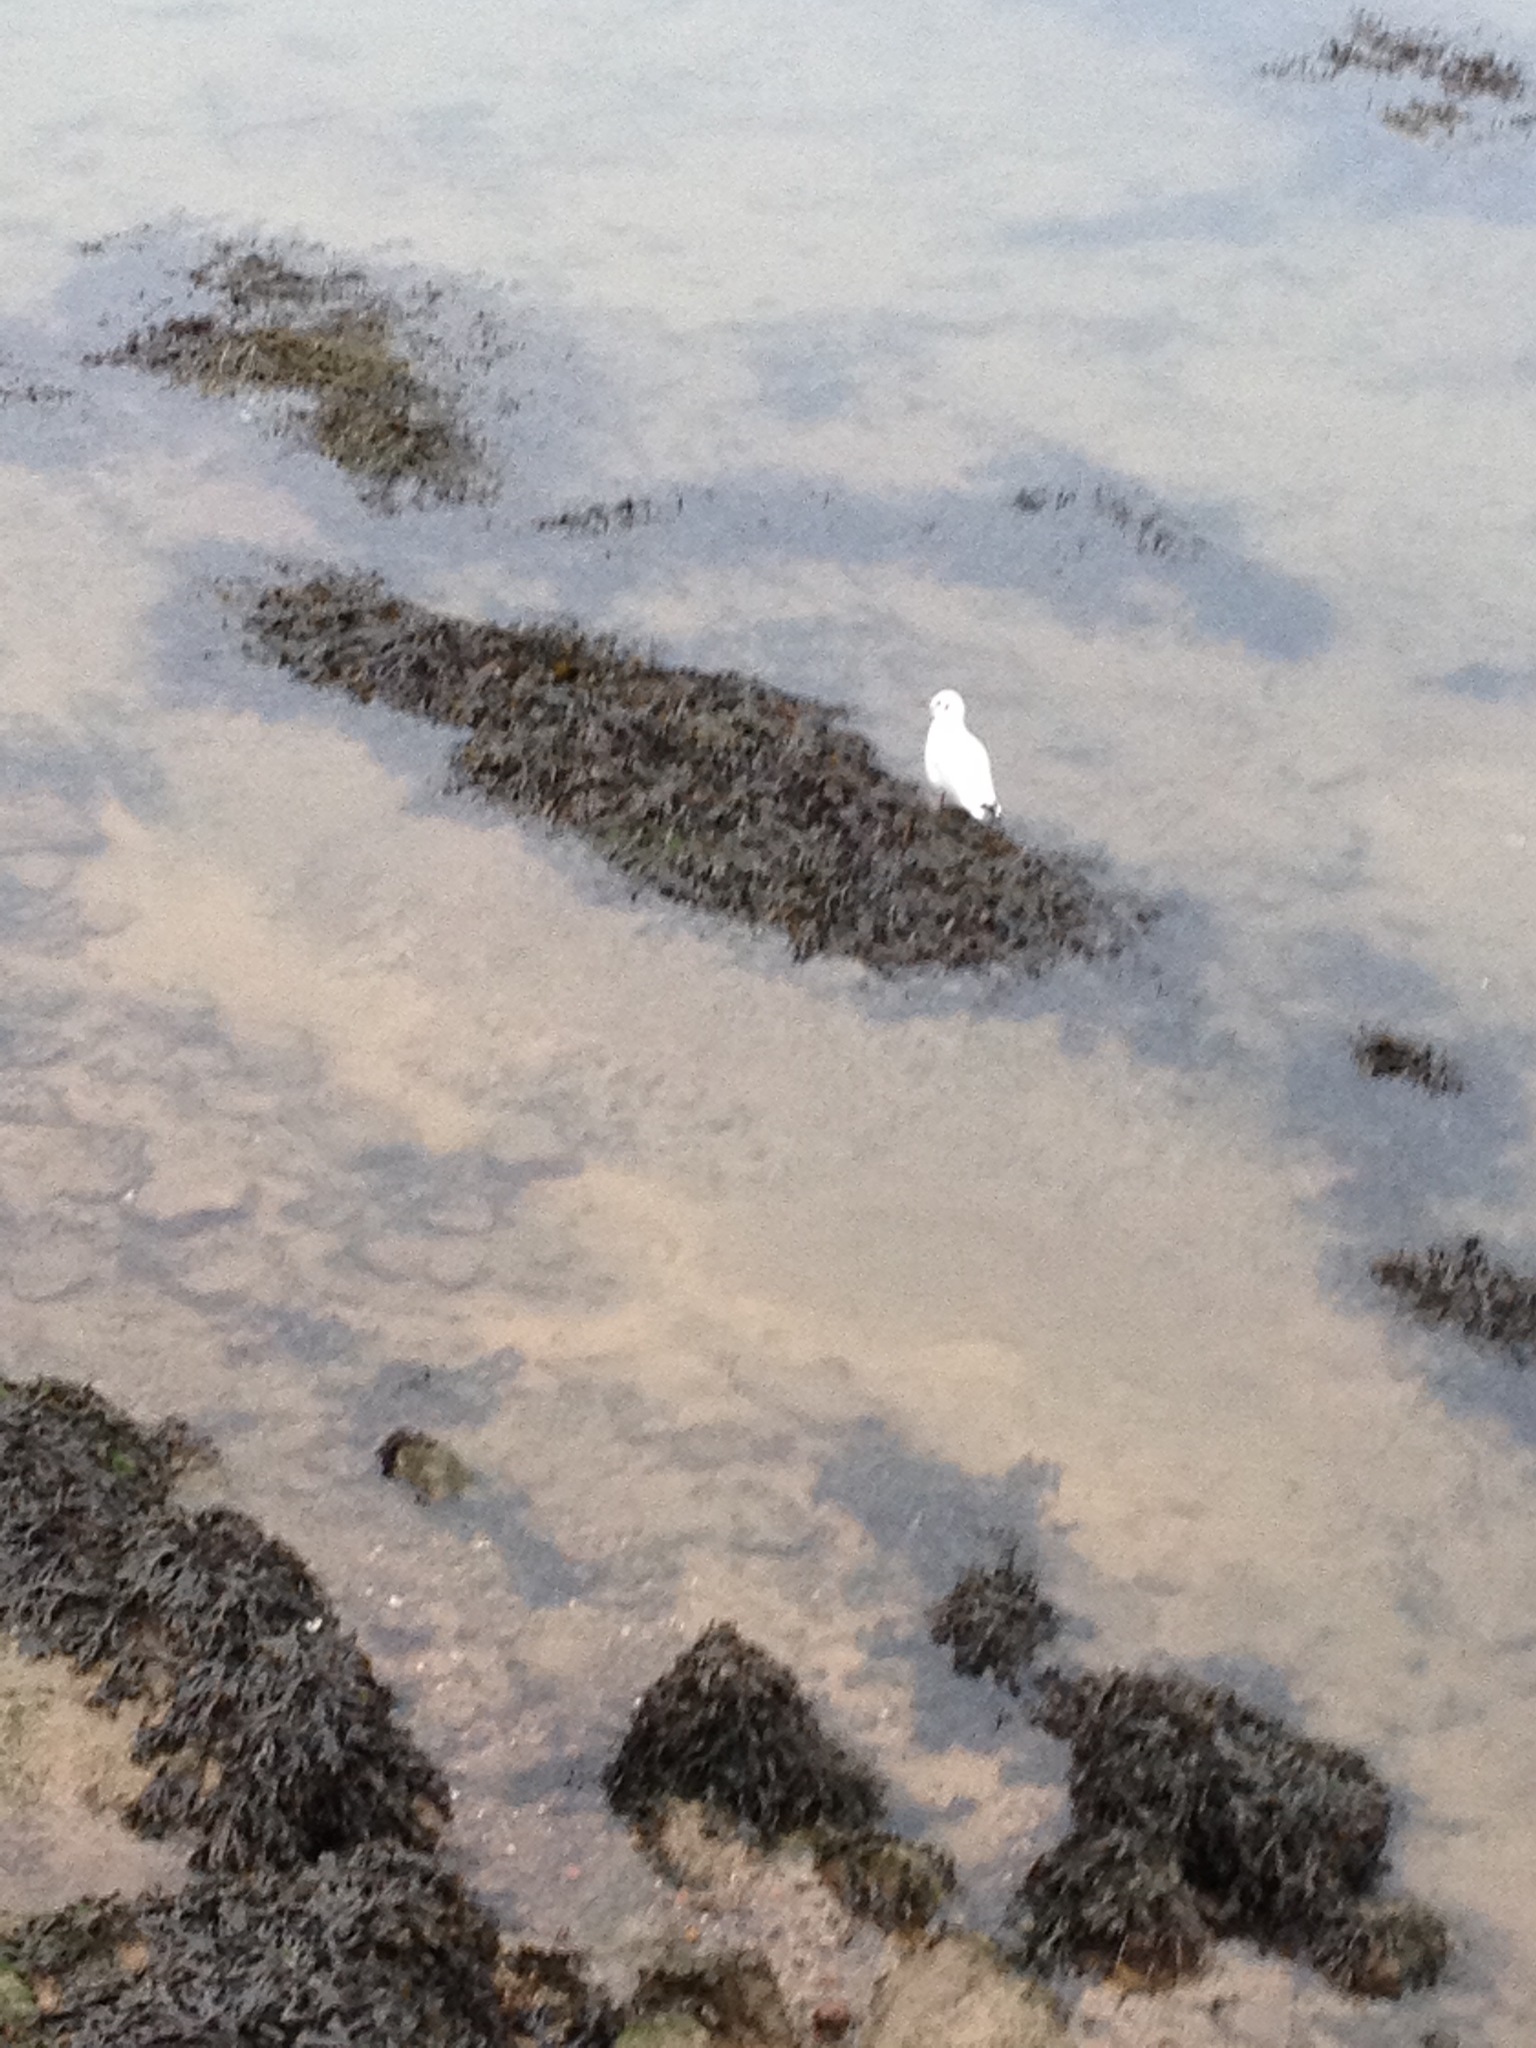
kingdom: Animalia
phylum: Chordata
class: Aves
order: Charadriiformes
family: Laridae
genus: Chroicocephalus
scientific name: Chroicocephalus ridibundus
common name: Black-headed gull
